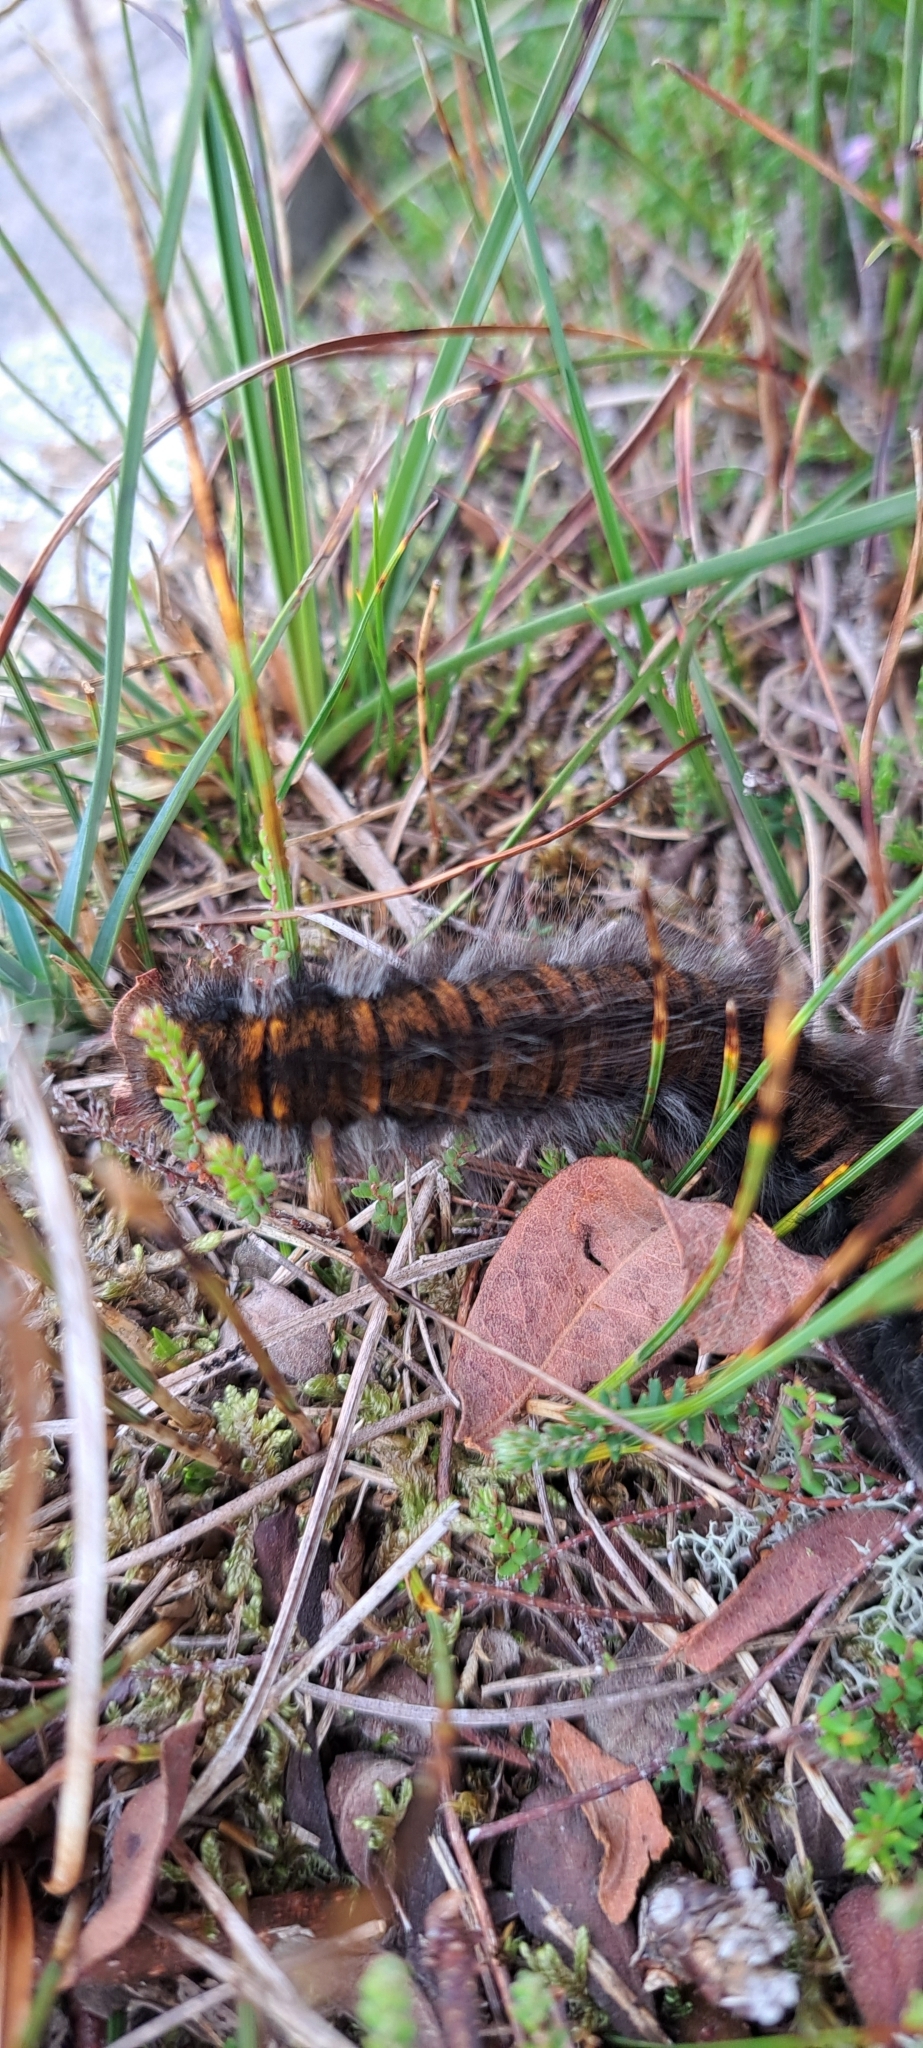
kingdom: Animalia
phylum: Arthropoda
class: Insecta
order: Lepidoptera
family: Lasiocampidae
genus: Macrothylacia
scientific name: Macrothylacia rubi
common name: Fox moth
